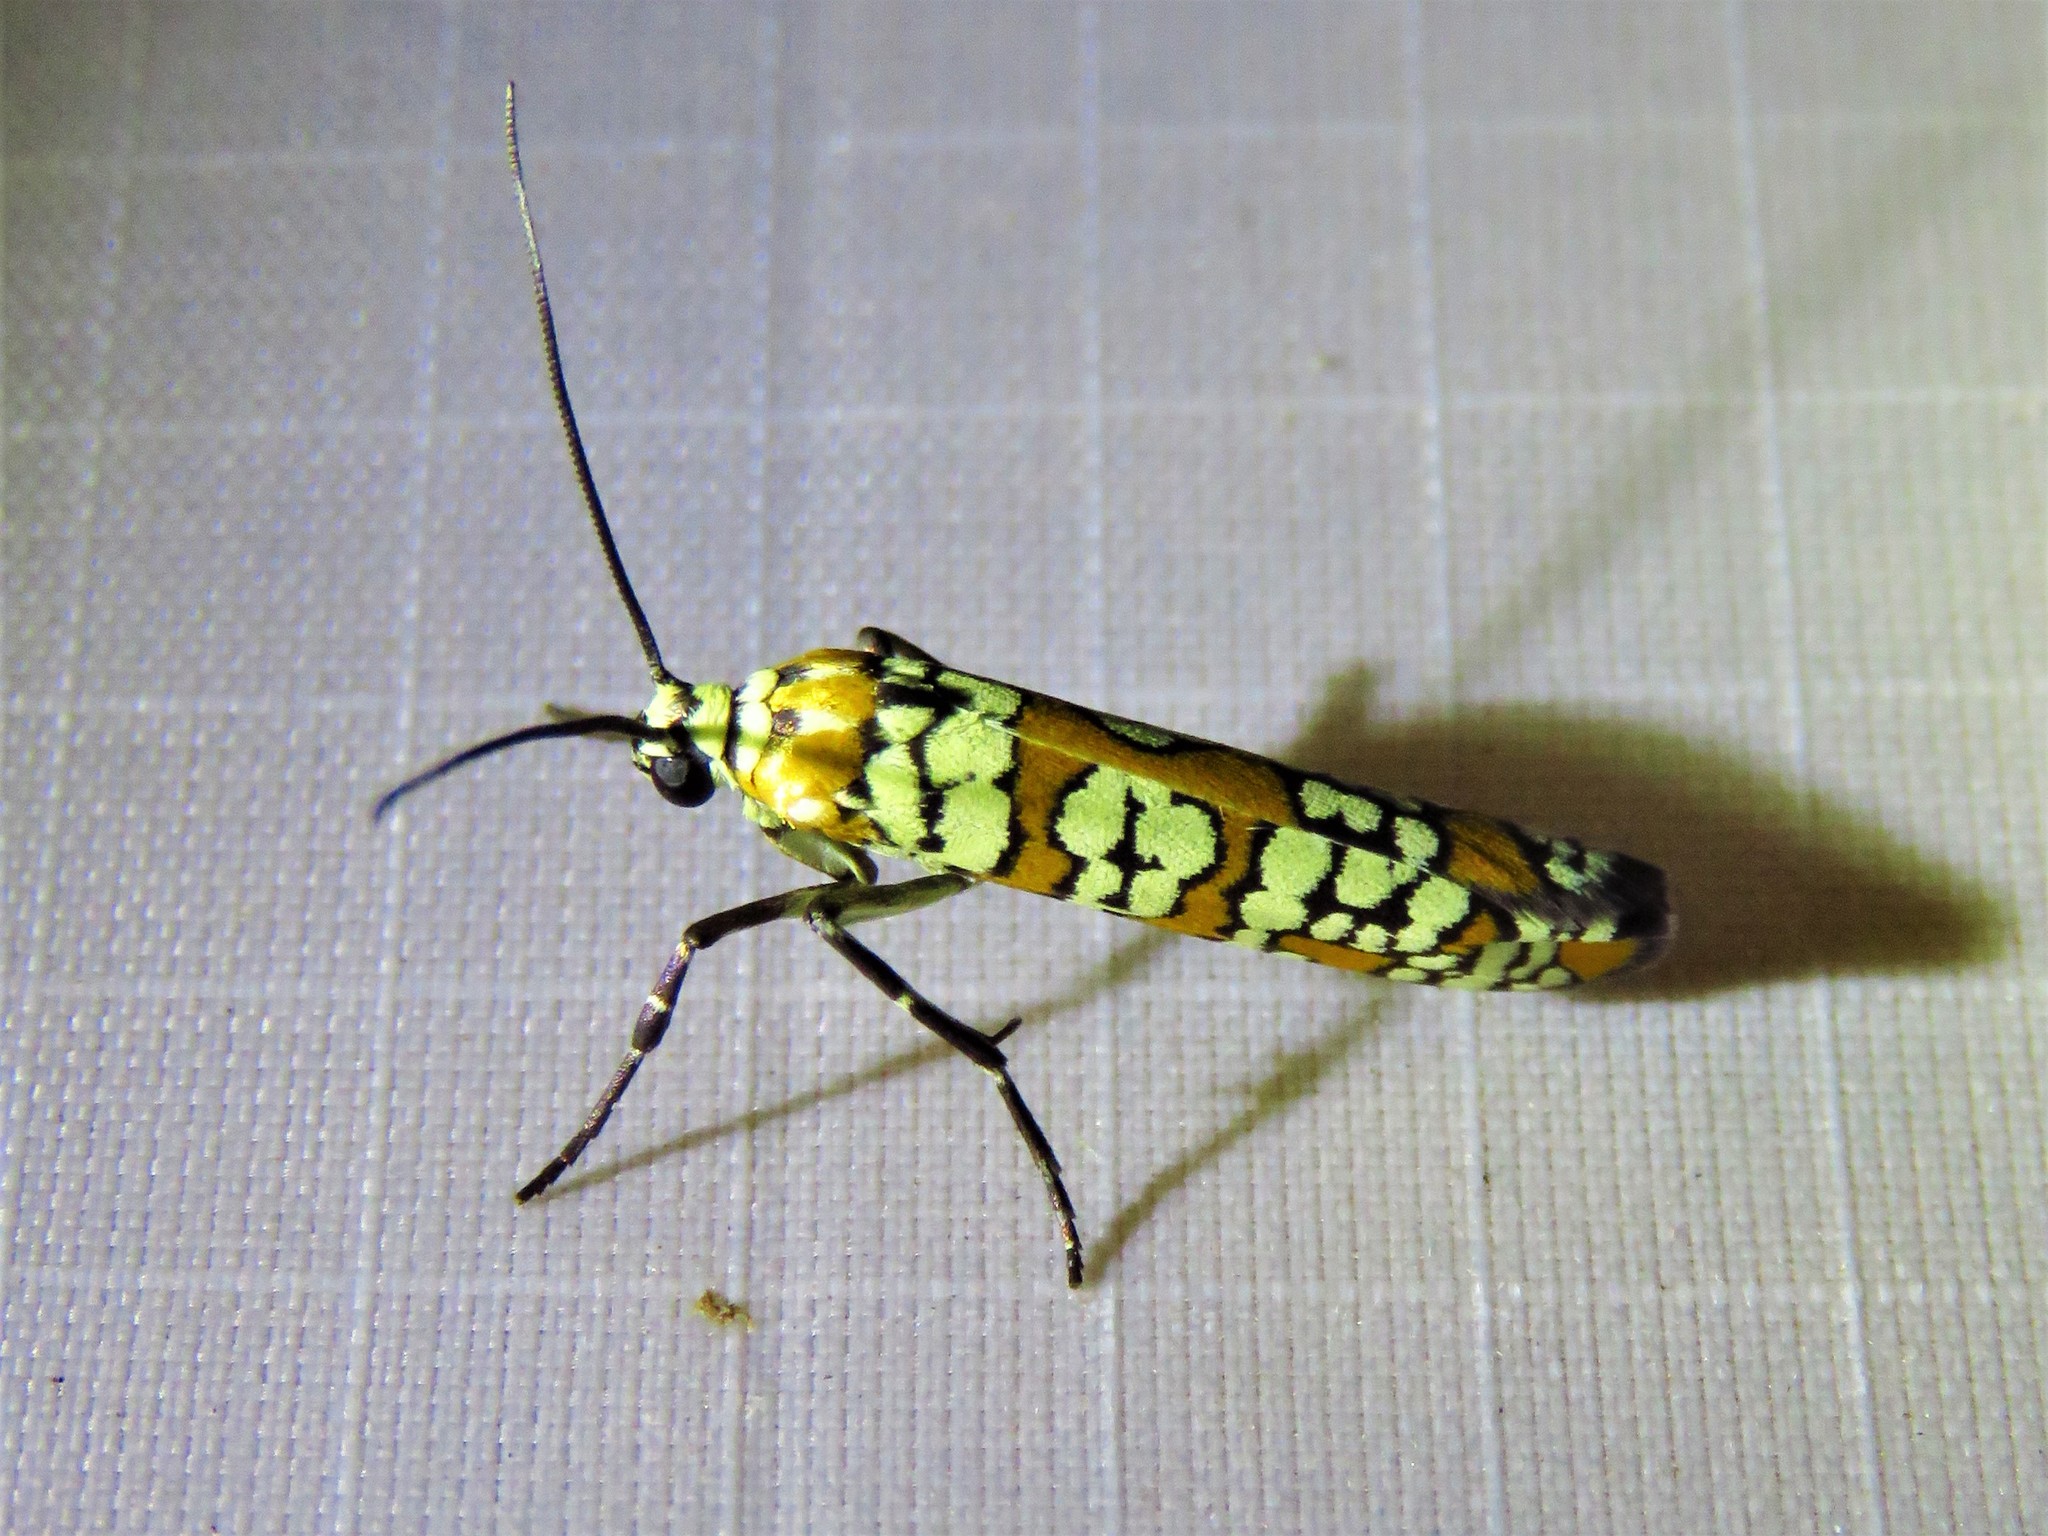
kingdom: Animalia
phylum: Arthropoda
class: Insecta
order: Lepidoptera
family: Attevidae
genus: Atteva
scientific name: Atteva punctella
